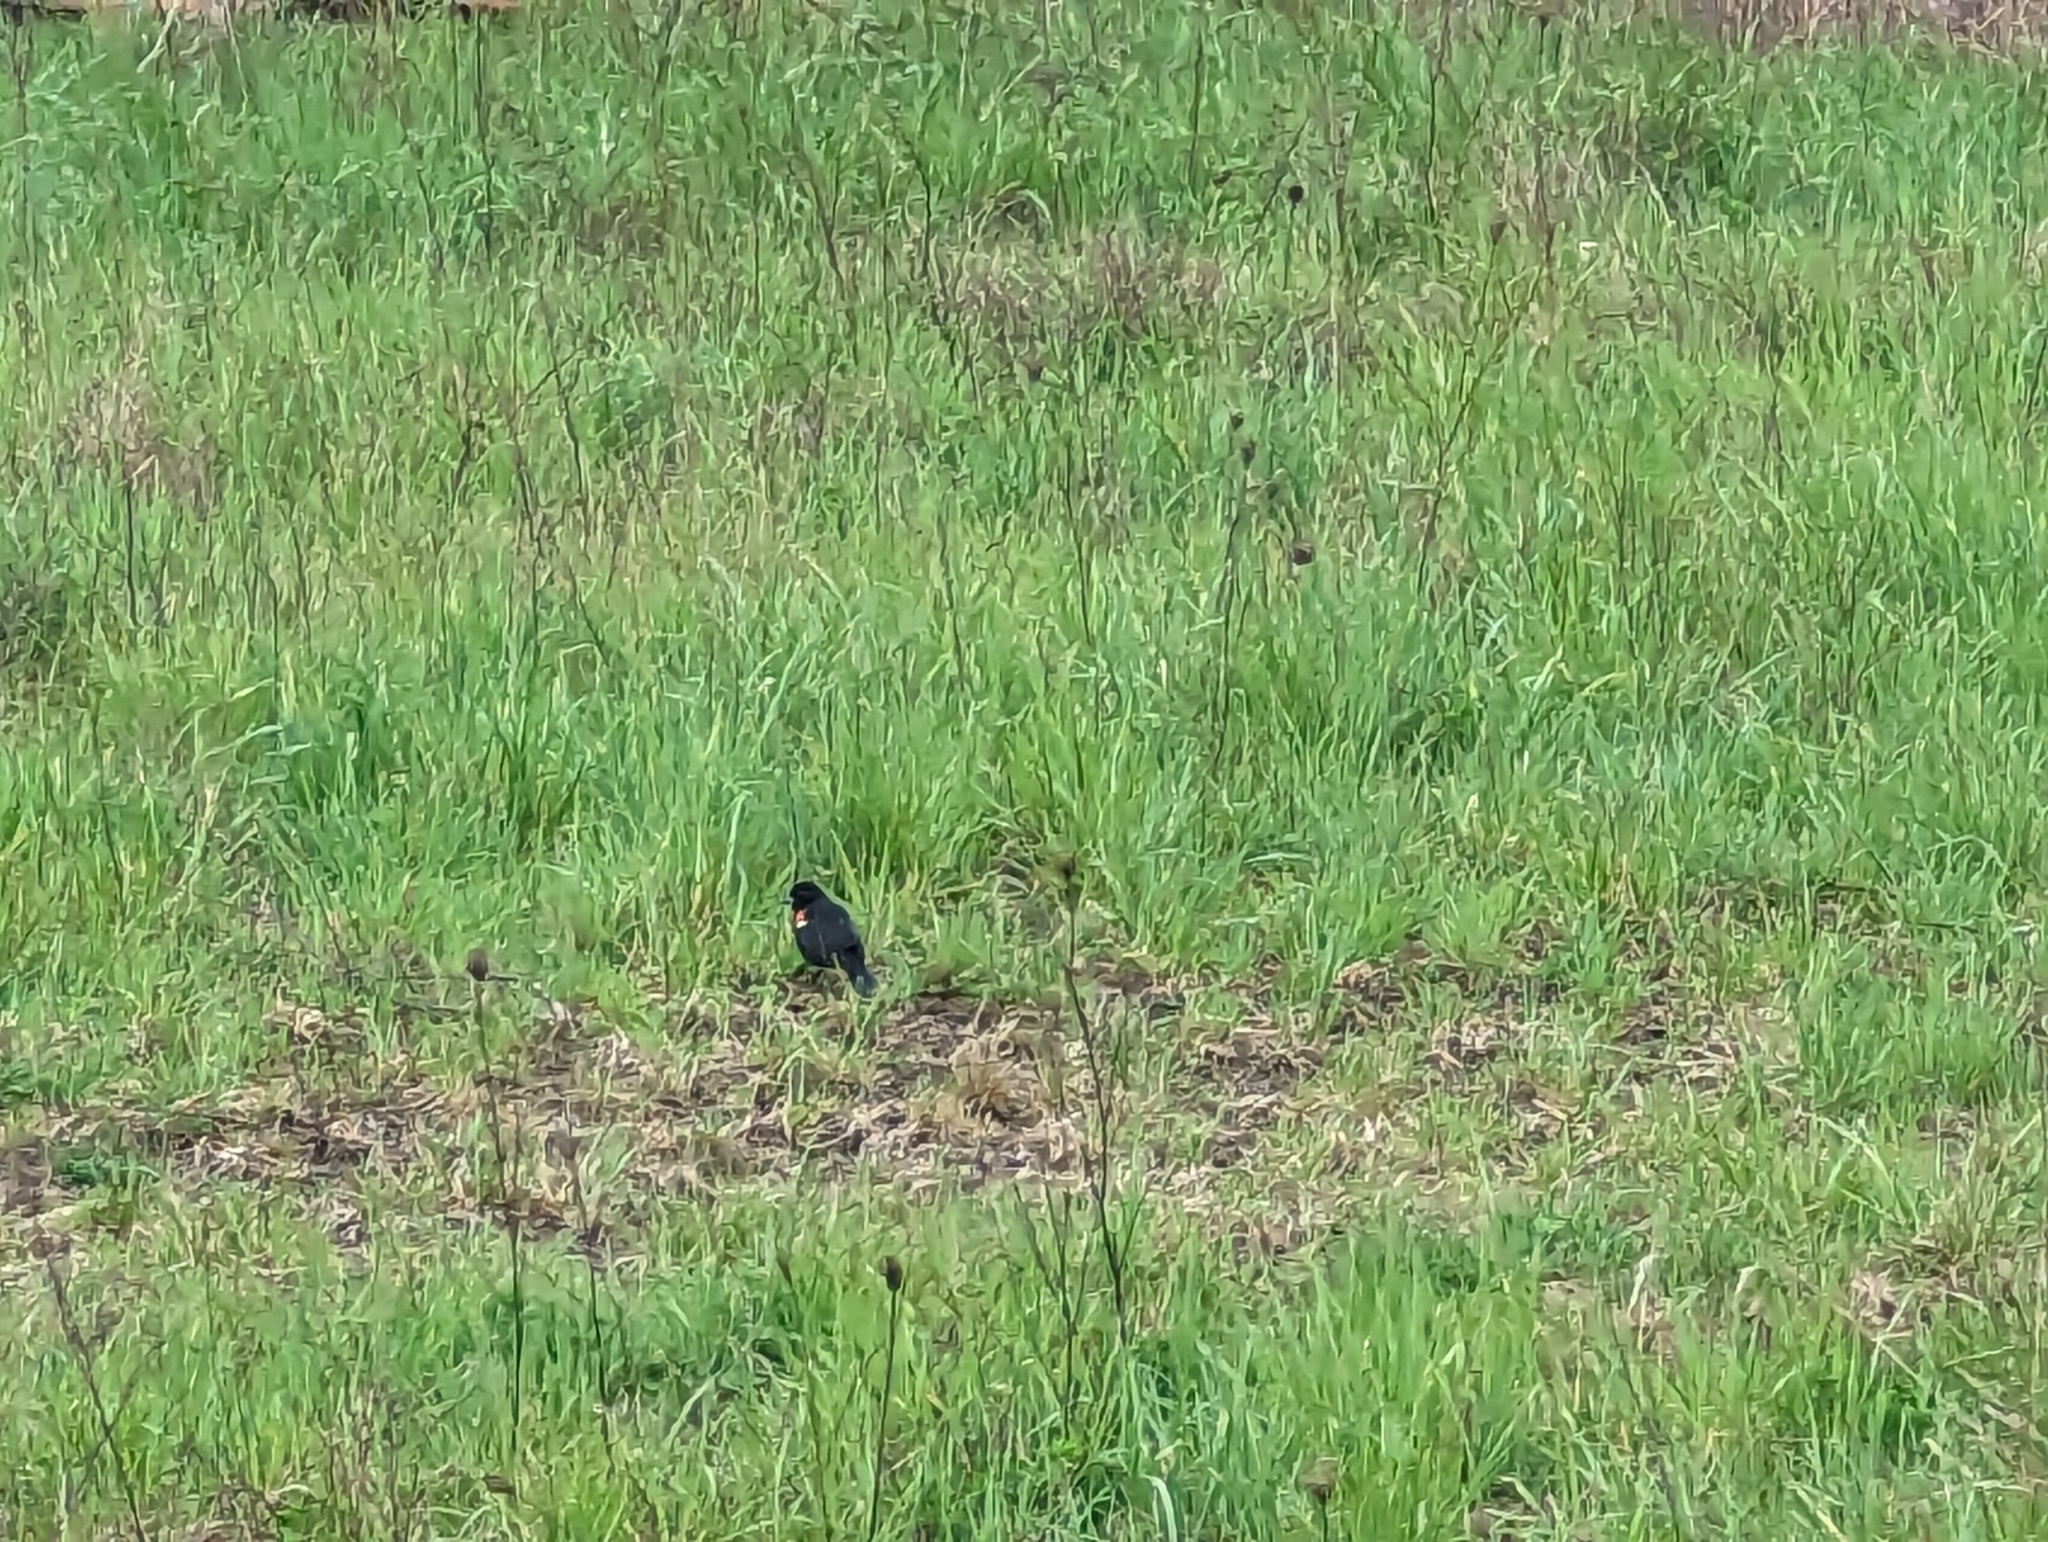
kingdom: Animalia
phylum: Chordata
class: Aves
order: Passeriformes
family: Icteridae
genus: Agelaius
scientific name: Agelaius phoeniceus
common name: Red-winged blackbird
